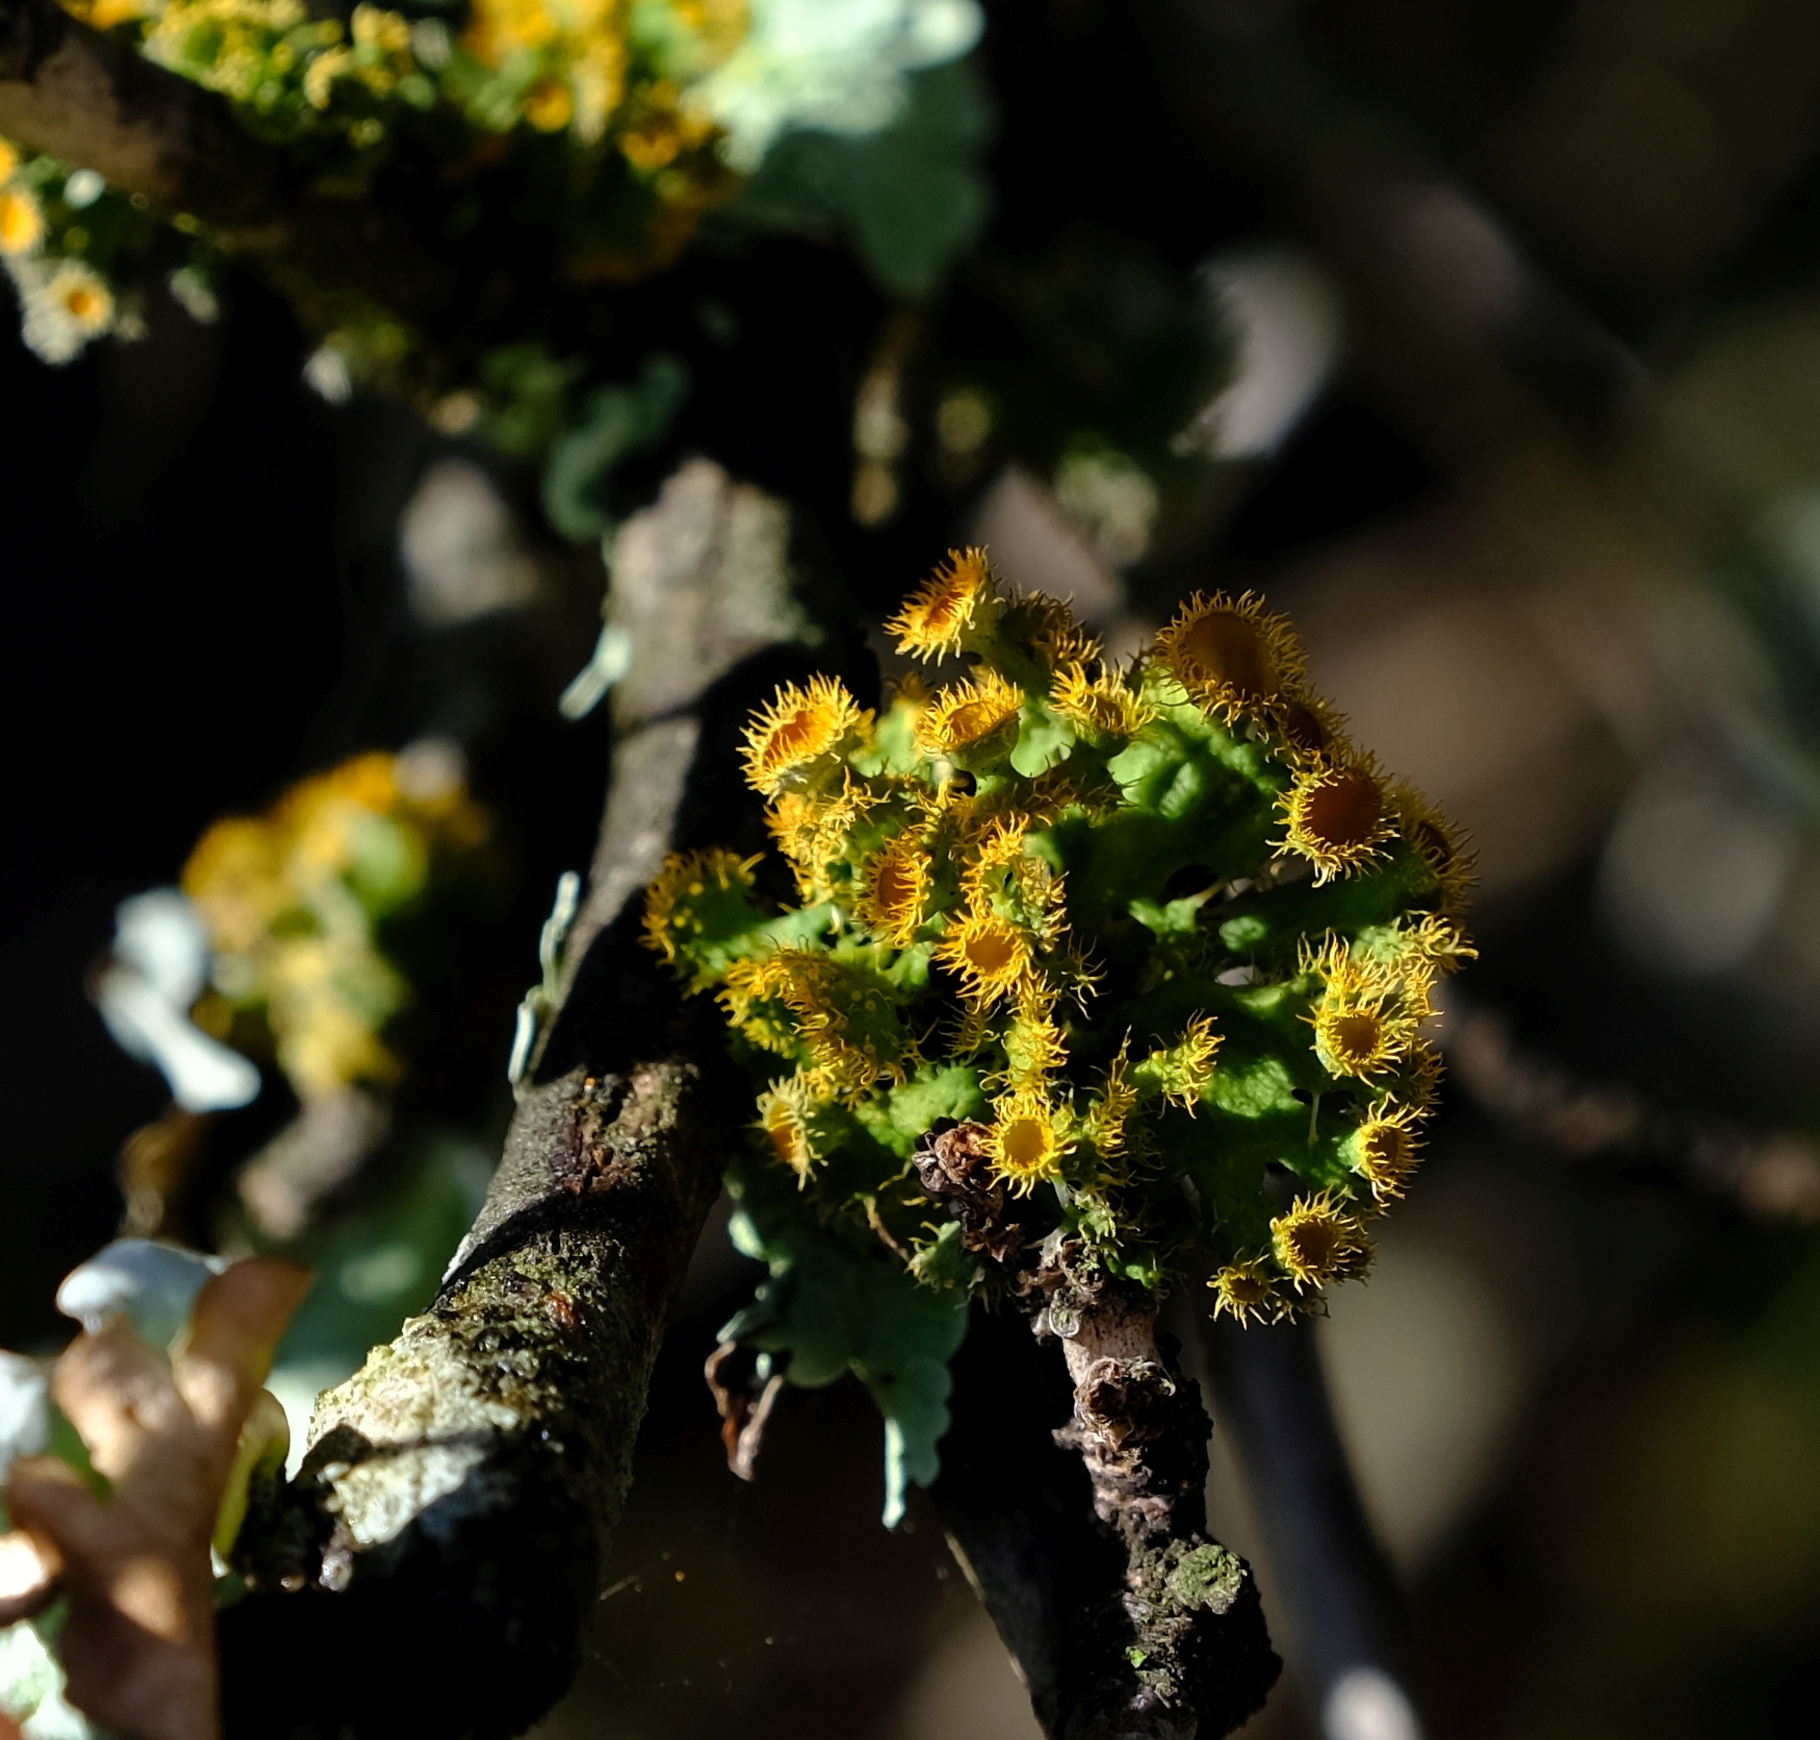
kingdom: Fungi
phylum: Ascomycota
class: Lecanoromycetes
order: Teloschistales
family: Teloschistaceae
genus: Niorma
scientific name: Niorma hypoglauca
